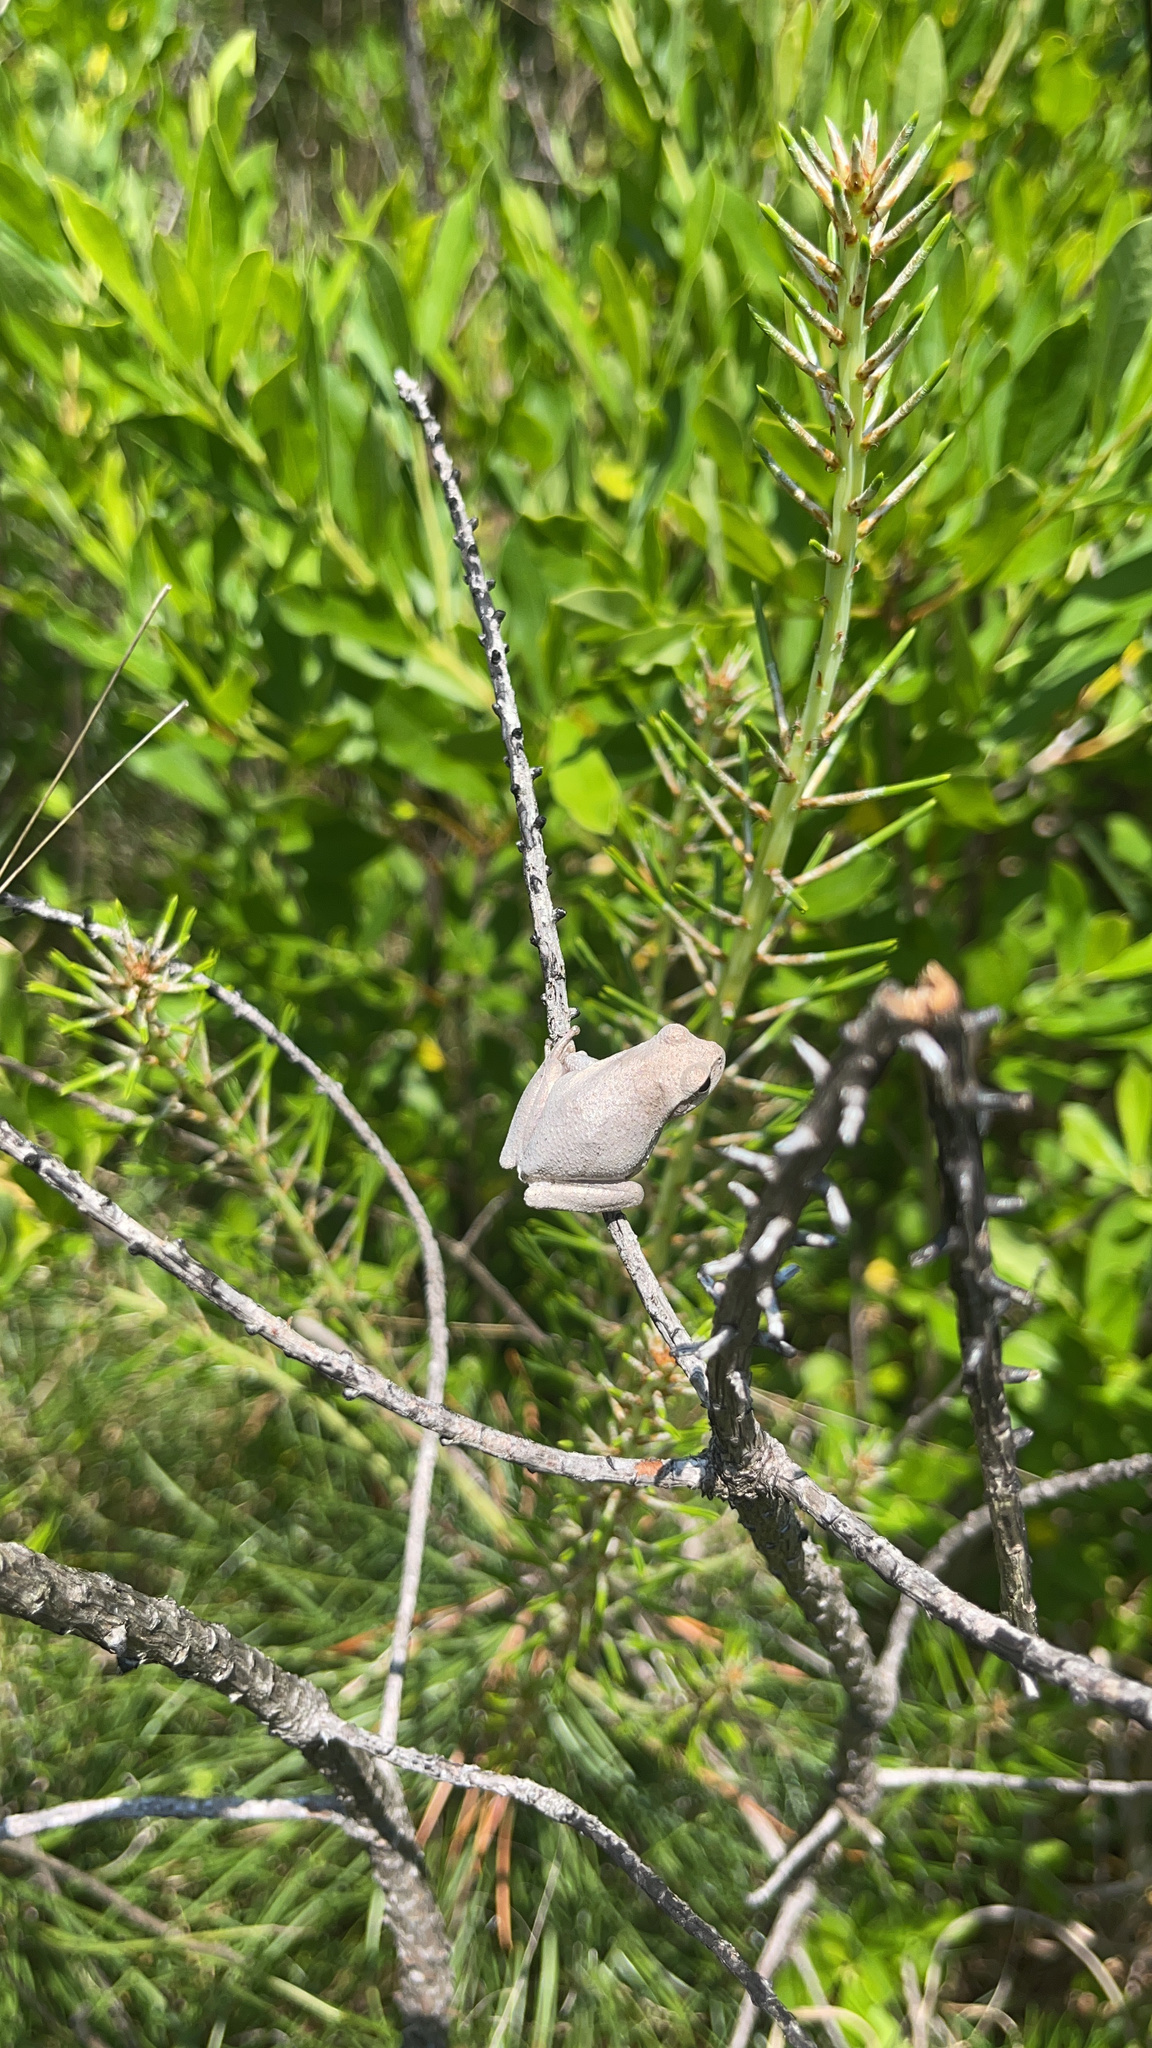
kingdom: Animalia
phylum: Chordata
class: Amphibia
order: Anura
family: Hylidae
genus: Hyla
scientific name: Hyla femoralis
